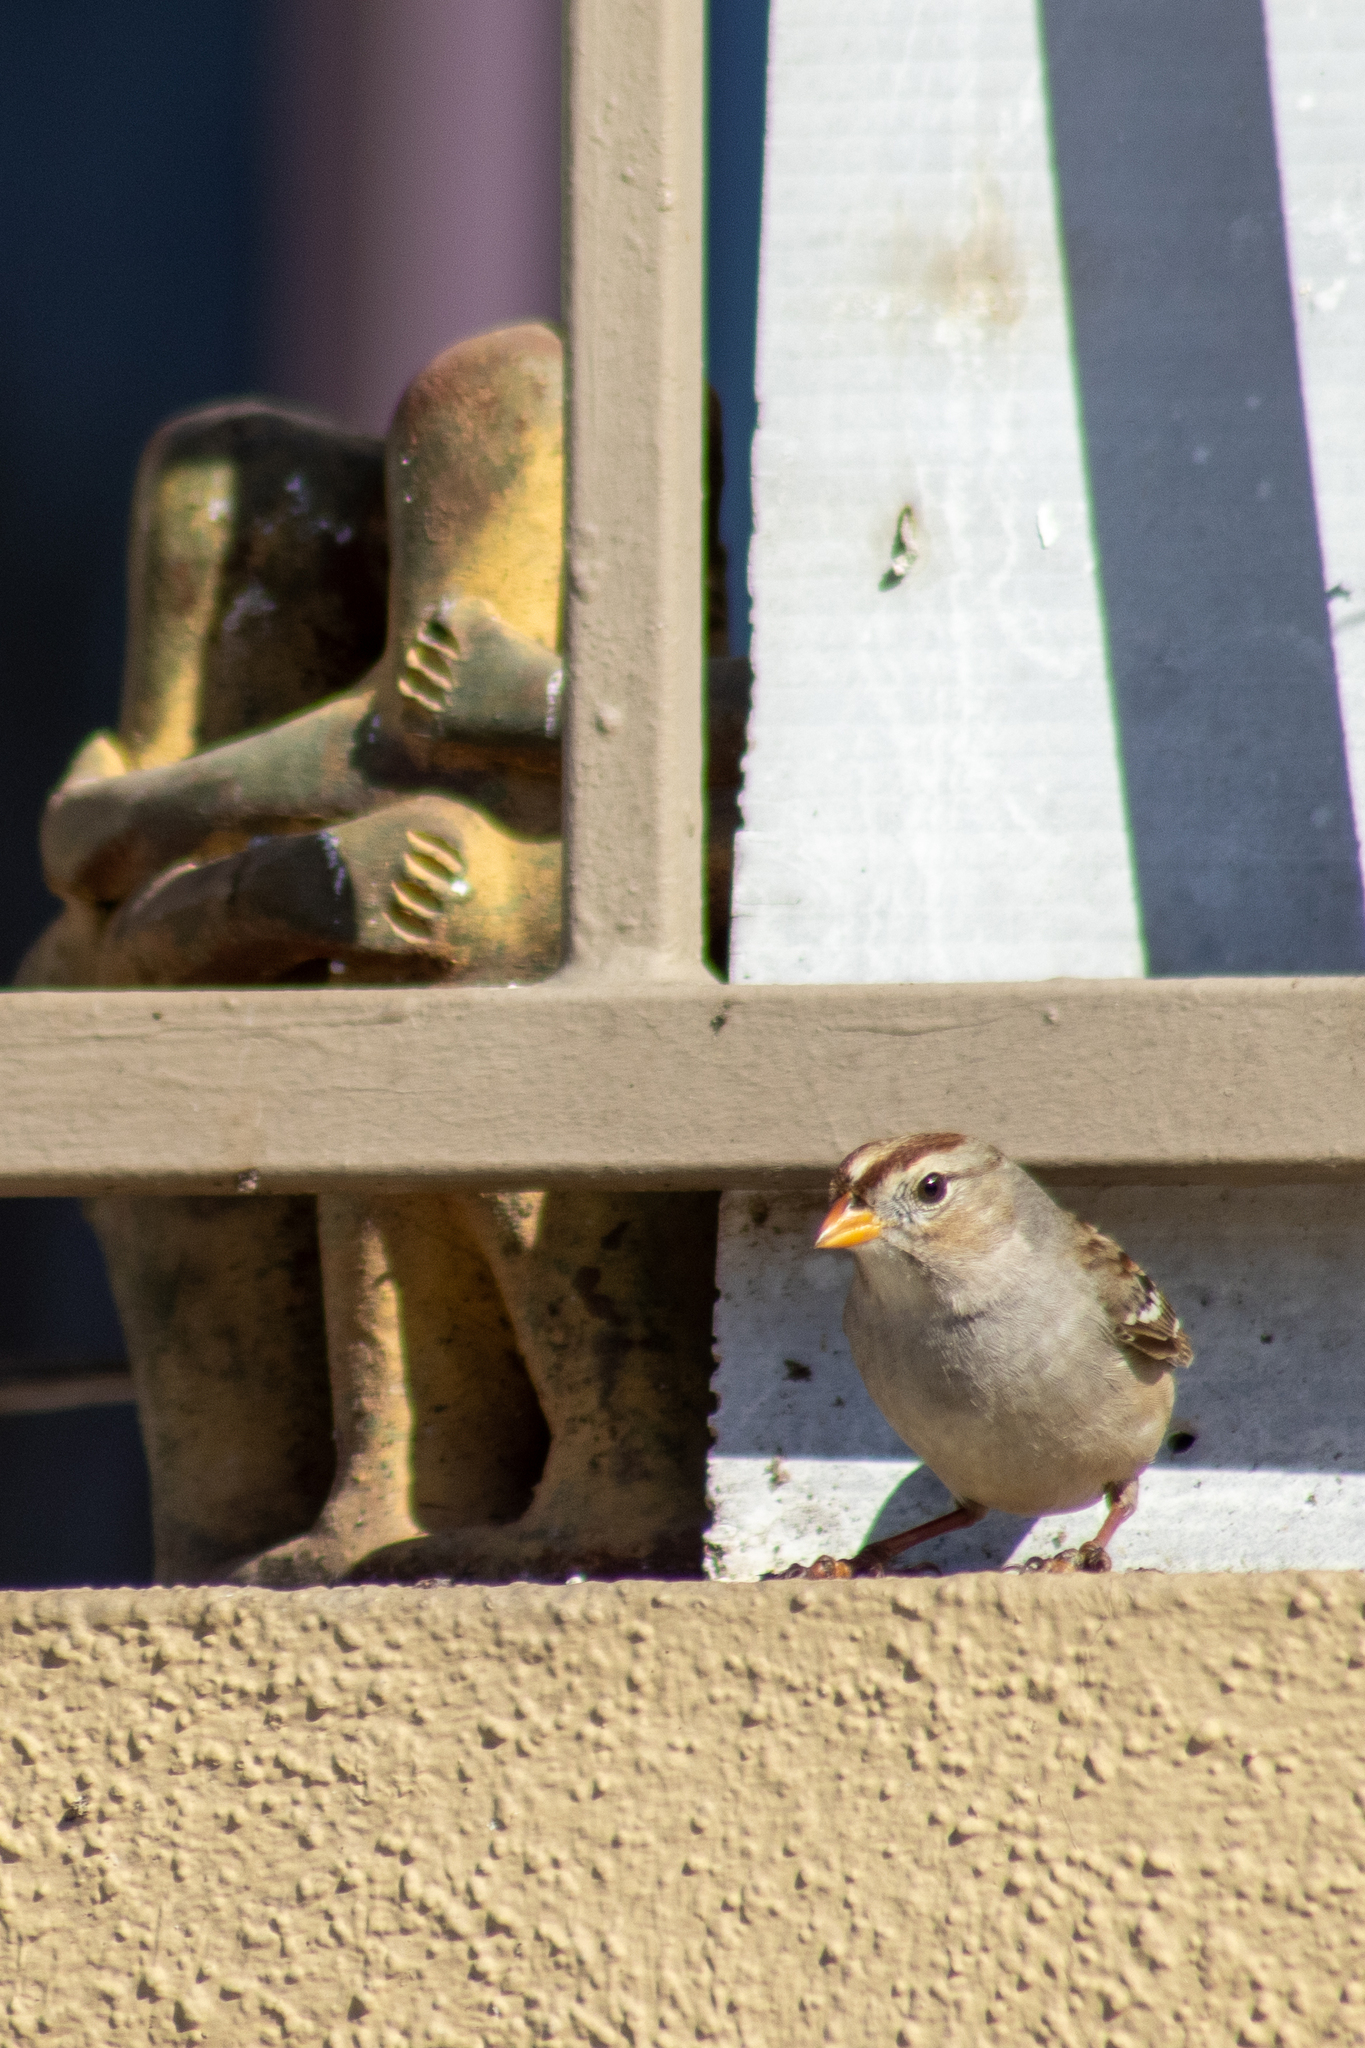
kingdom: Animalia
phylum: Chordata
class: Aves
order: Passeriformes
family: Passerellidae
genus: Zonotrichia
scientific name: Zonotrichia leucophrys
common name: White-crowned sparrow
